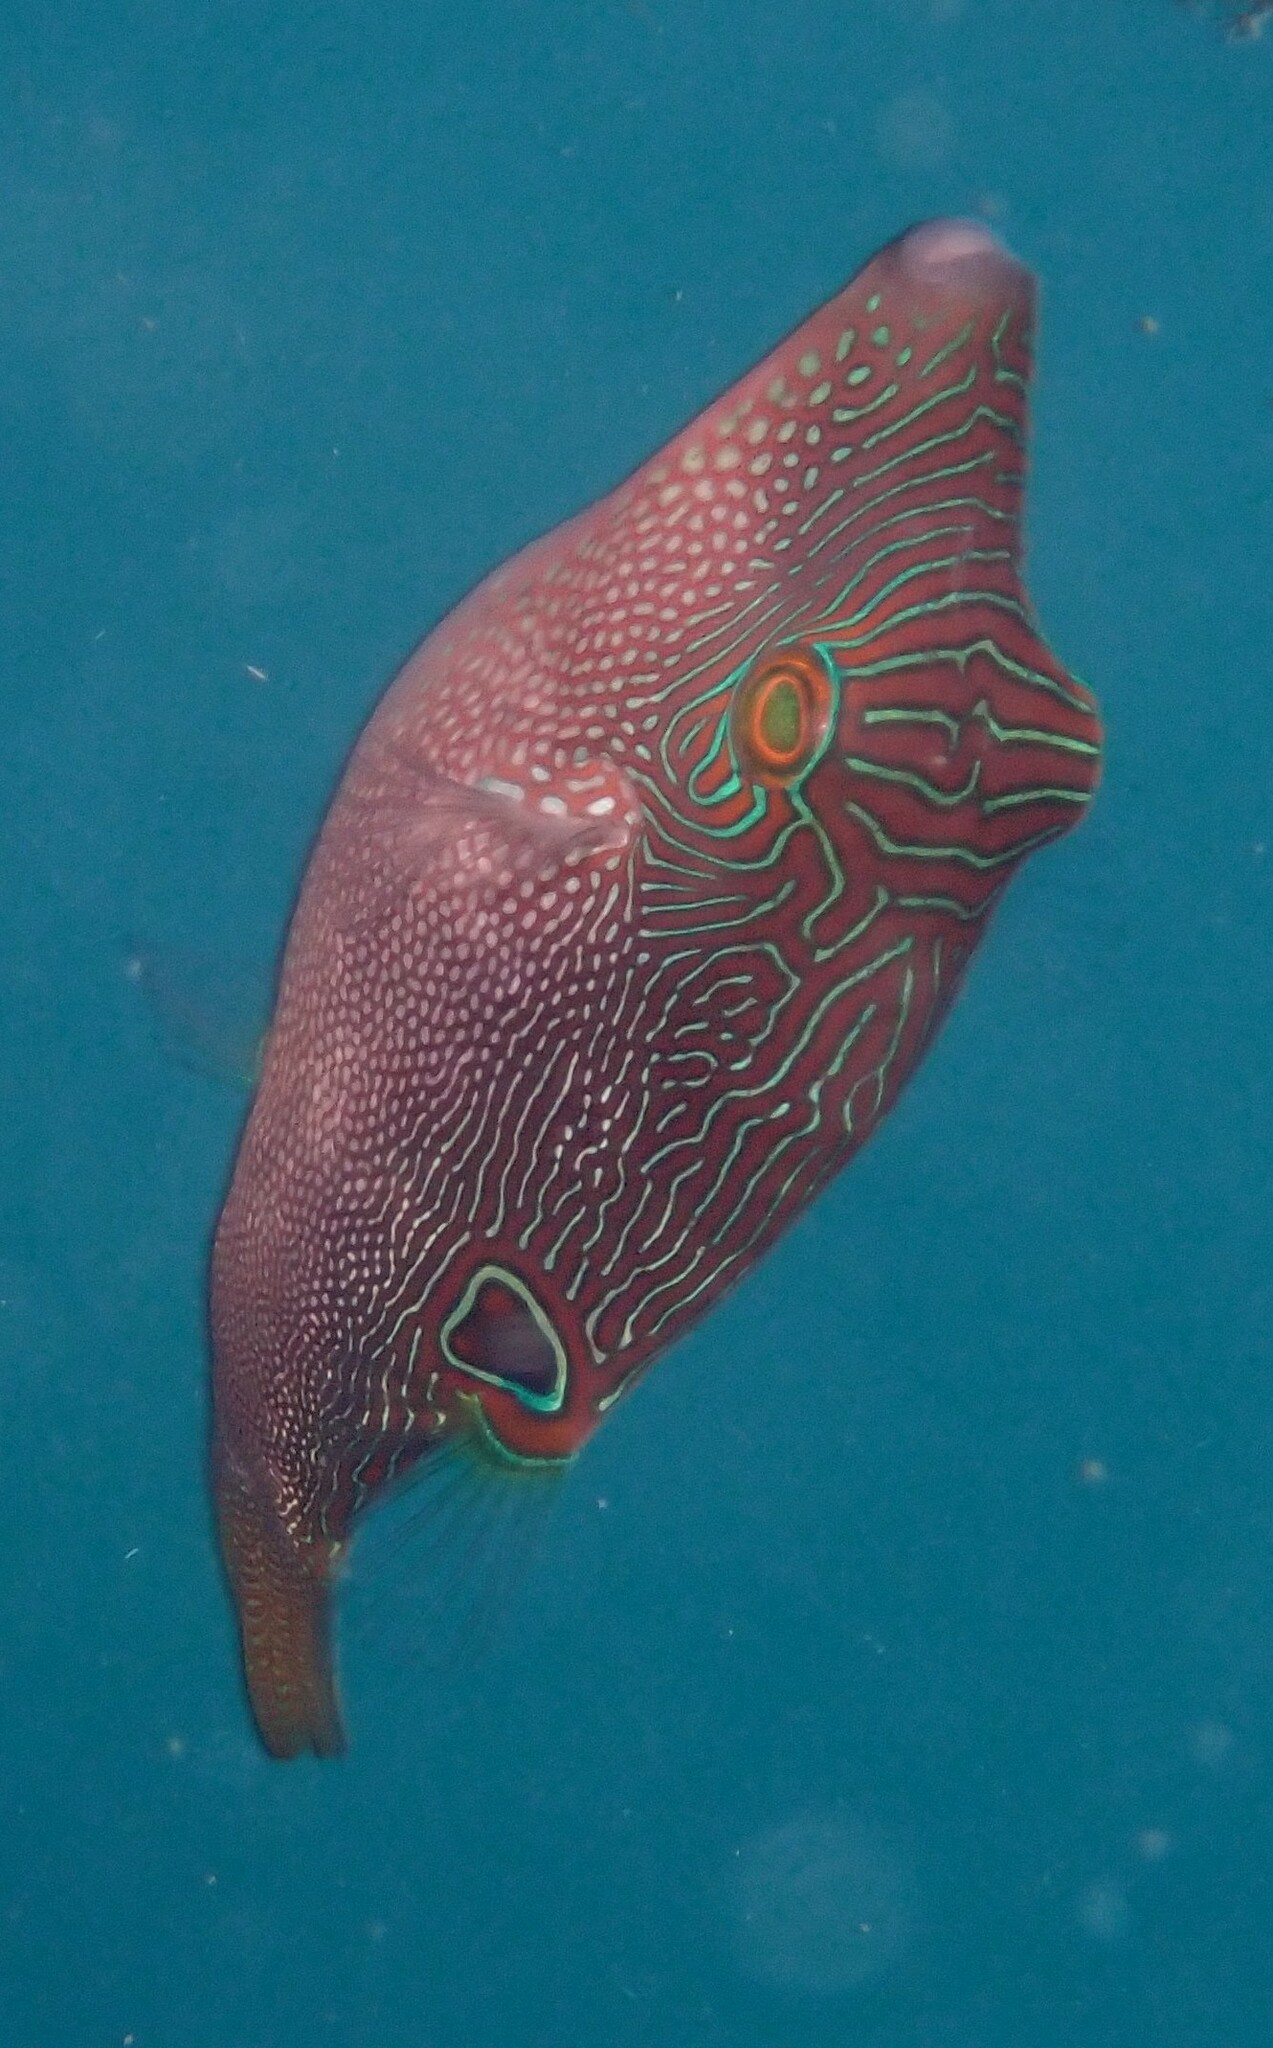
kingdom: Animalia
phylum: Chordata
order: Tetraodontiformes
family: Tetraodontidae
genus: Canthigaster
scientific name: Canthigaster compressa
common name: Compressed toby
